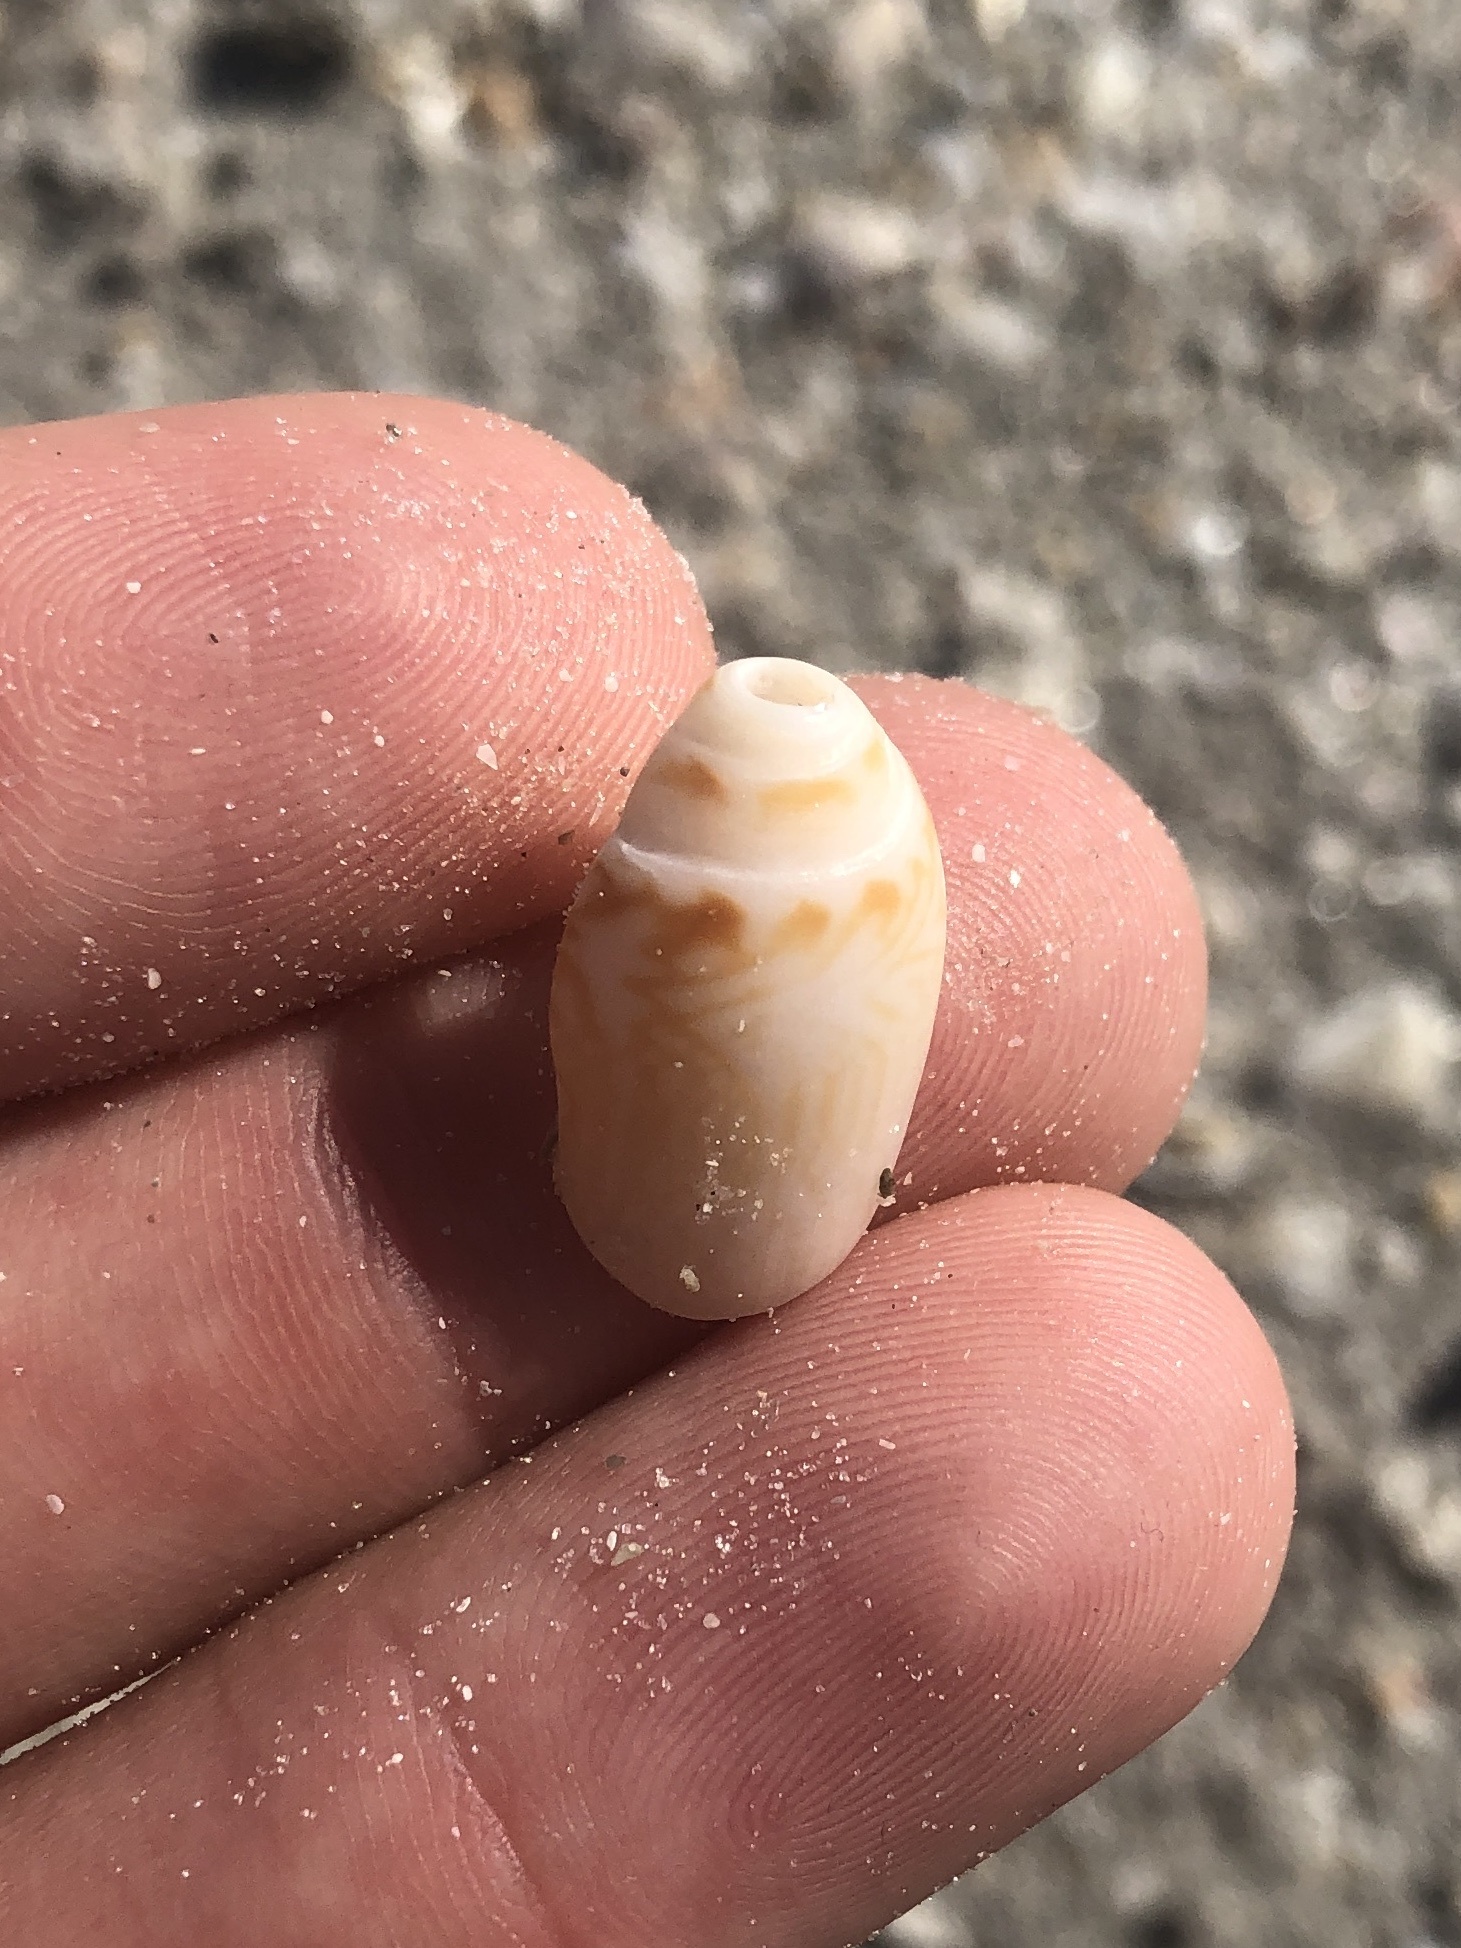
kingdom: Animalia
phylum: Mollusca
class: Gastropoda
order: Neogastropoda
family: Olividae
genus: Oliva
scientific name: Oliva sayana
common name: Lettered olive
